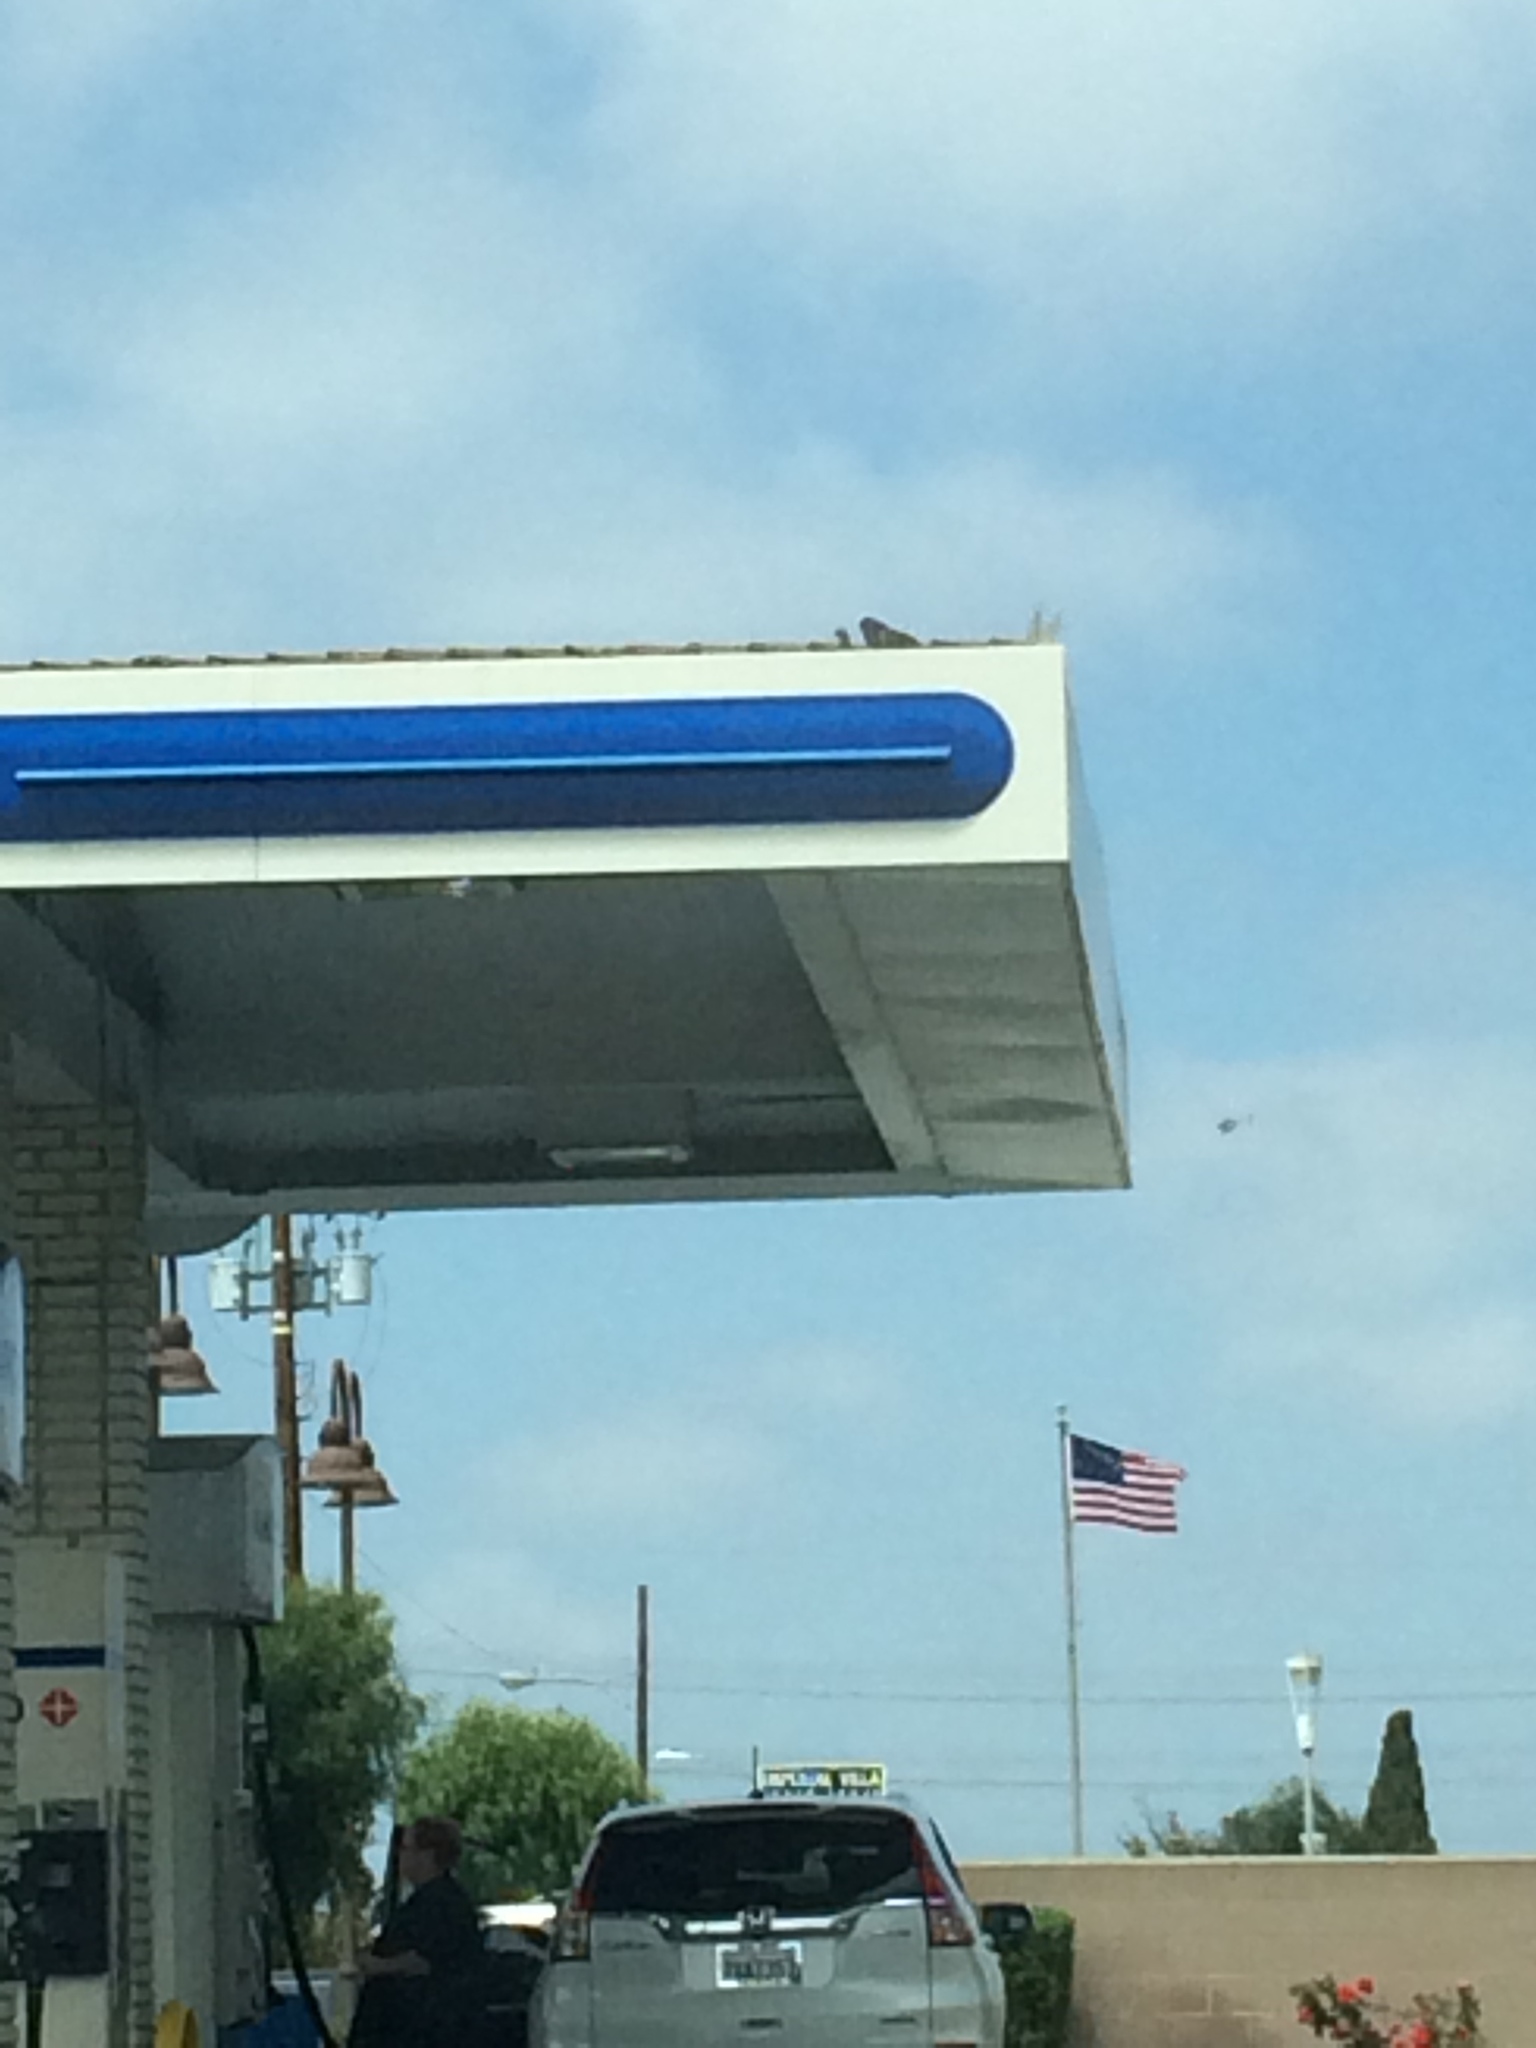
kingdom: Animalia
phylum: Chordata
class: Aves
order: Columbiformes
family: Columbidae
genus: Columba
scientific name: Columba livia
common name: Rock pigeon
